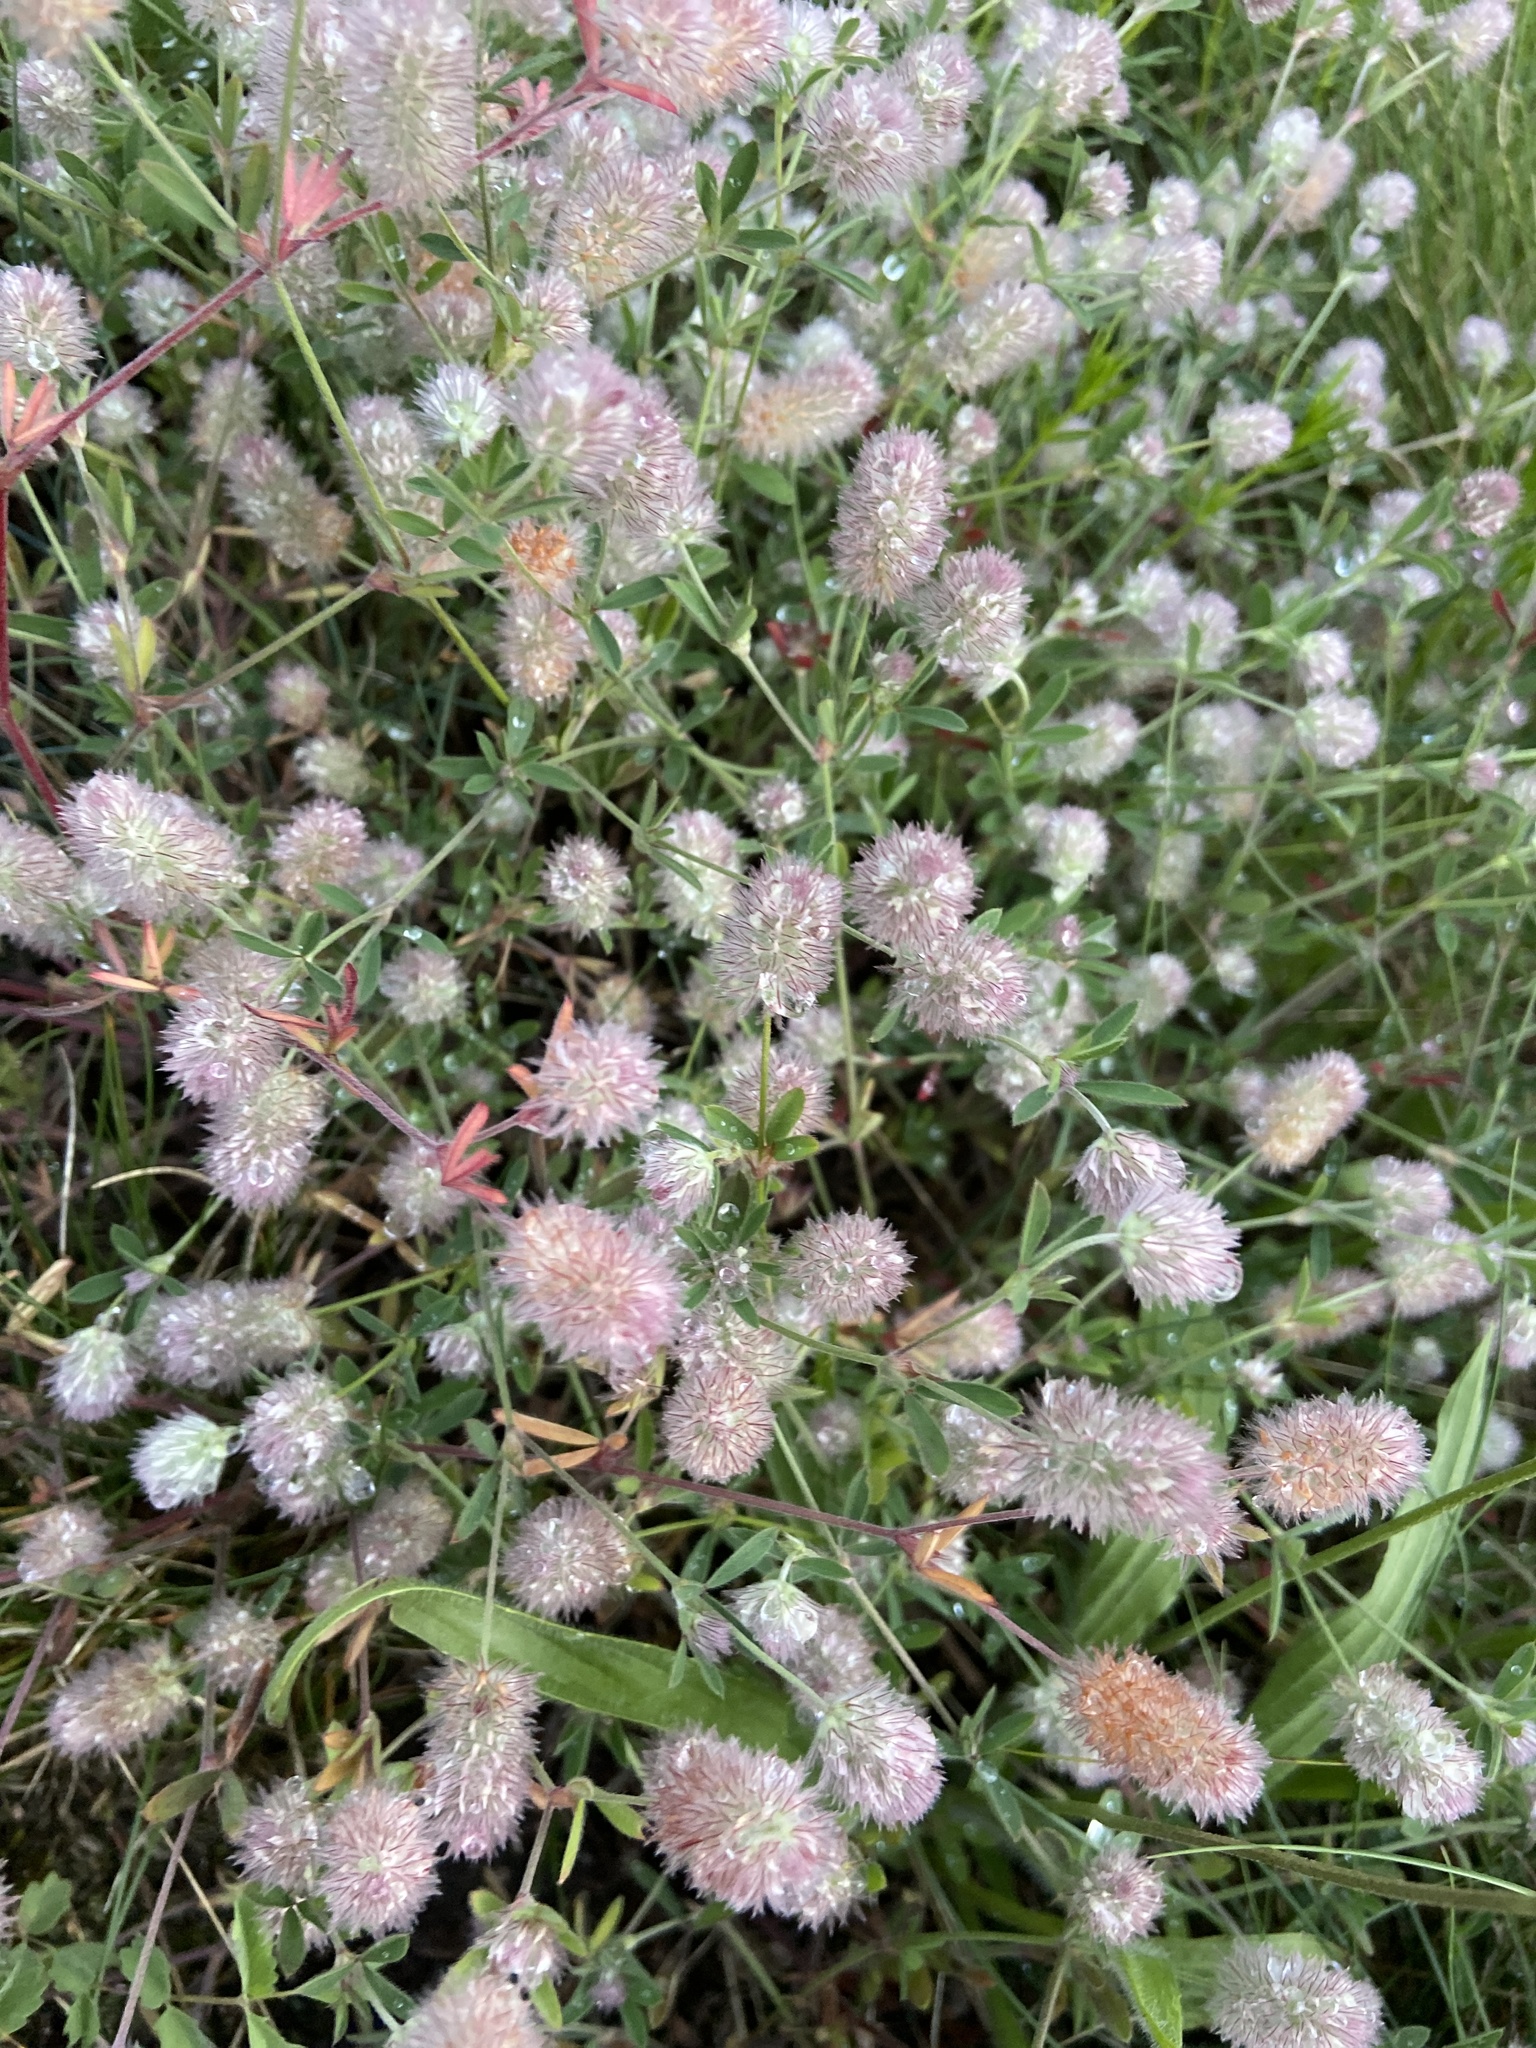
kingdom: Plantae
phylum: Tracheophyta
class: Magnoliopsida
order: Fabales
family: Fabaceae
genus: Trifolium
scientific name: Trifolium arvense
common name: Hare's-foot clover
